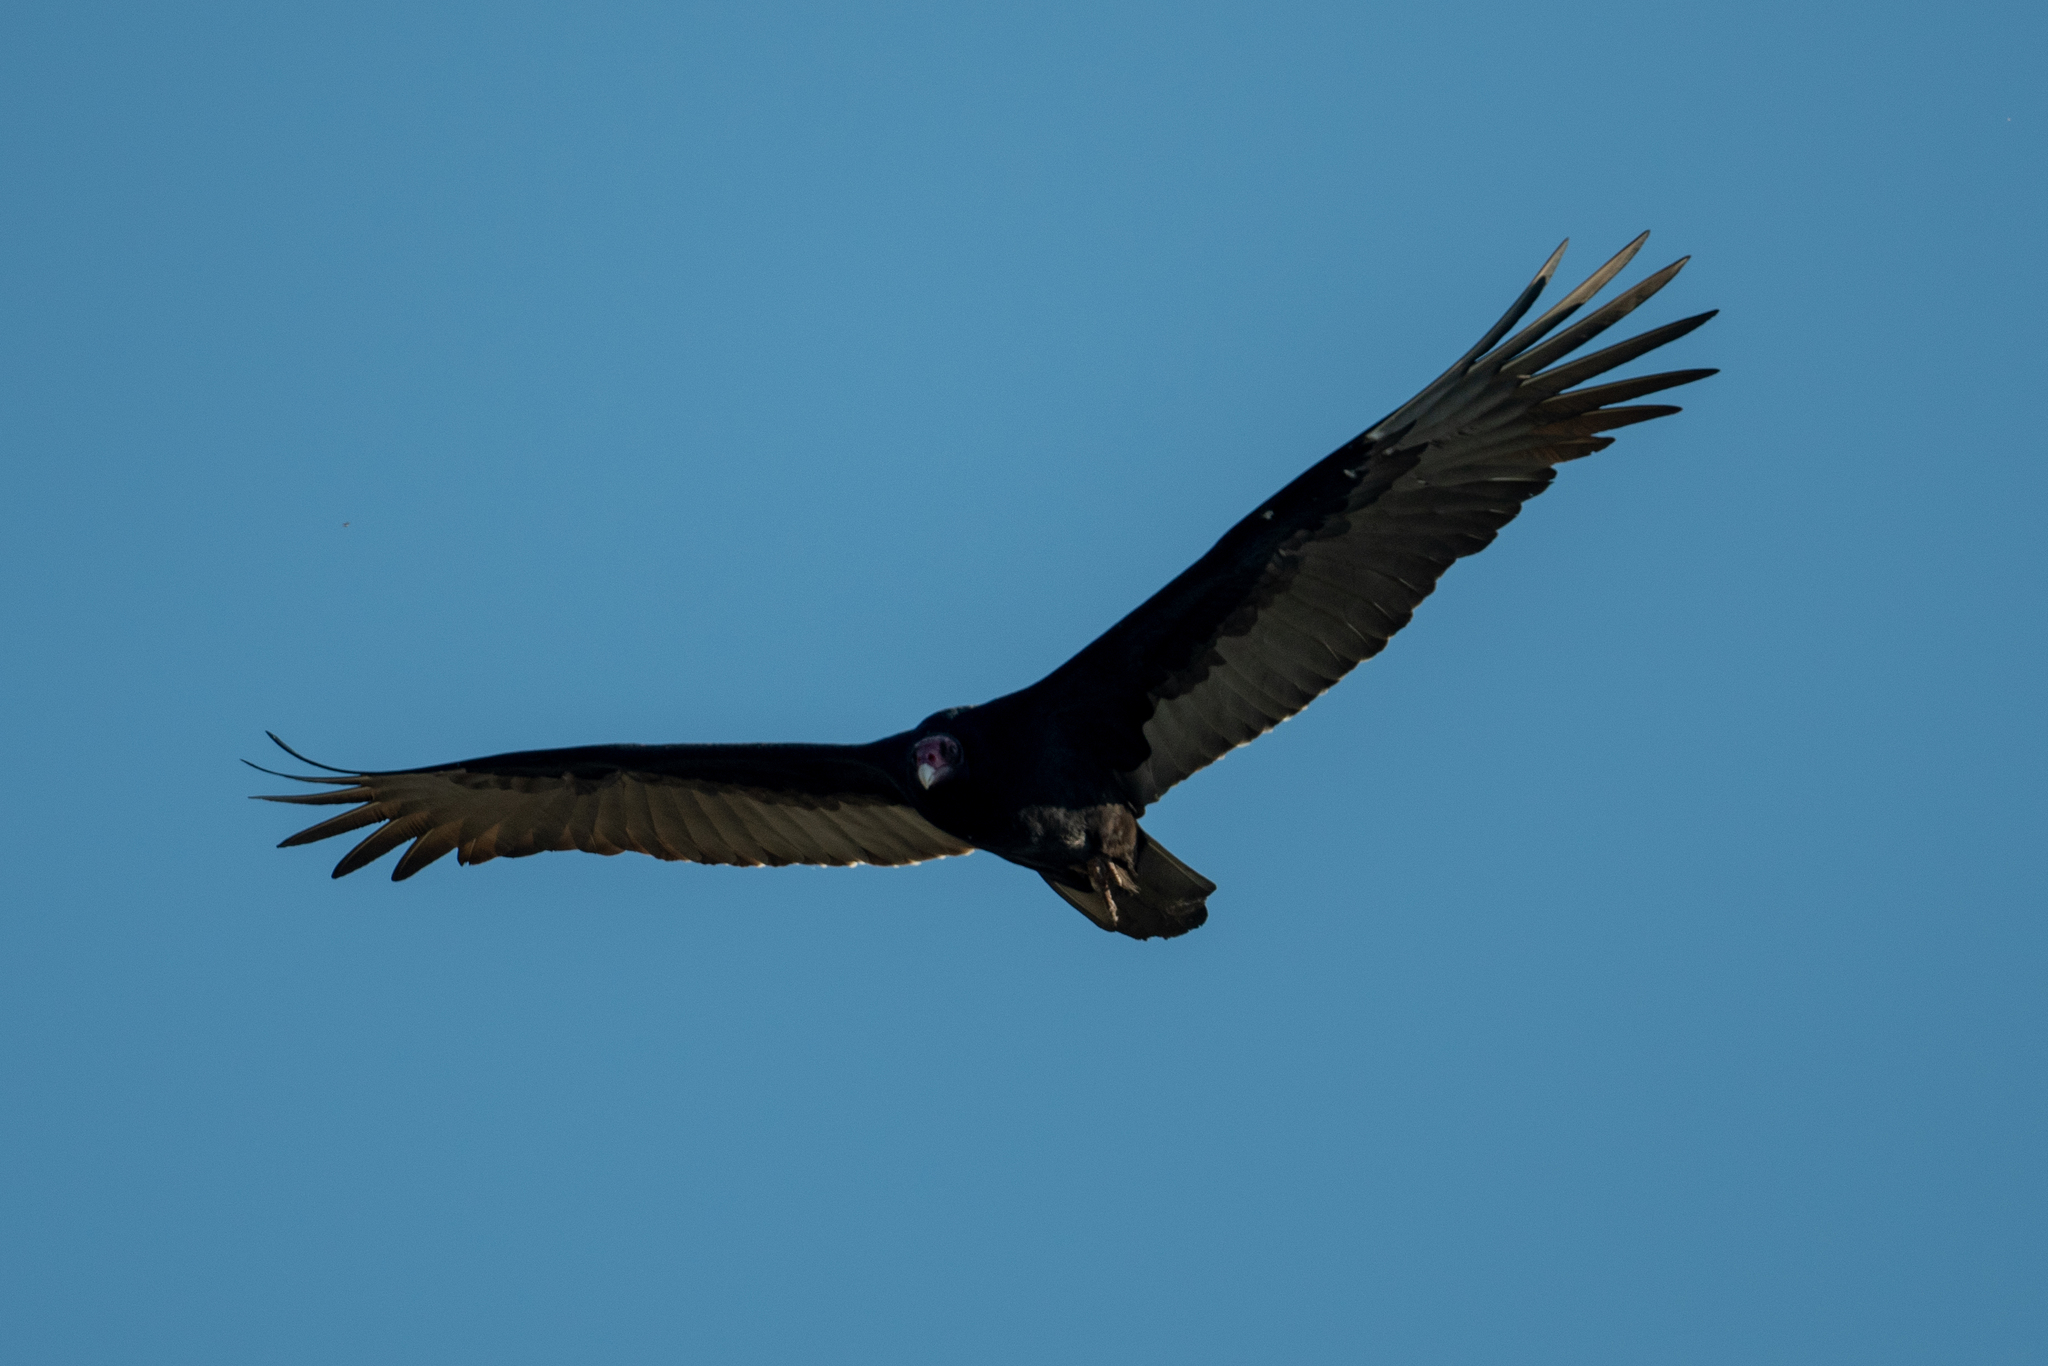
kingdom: Animalia
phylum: Chordata
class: Aves
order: Accipitriformes
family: Cathartidae
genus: Cathartes
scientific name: Cathartes aura
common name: Turkey vulture
